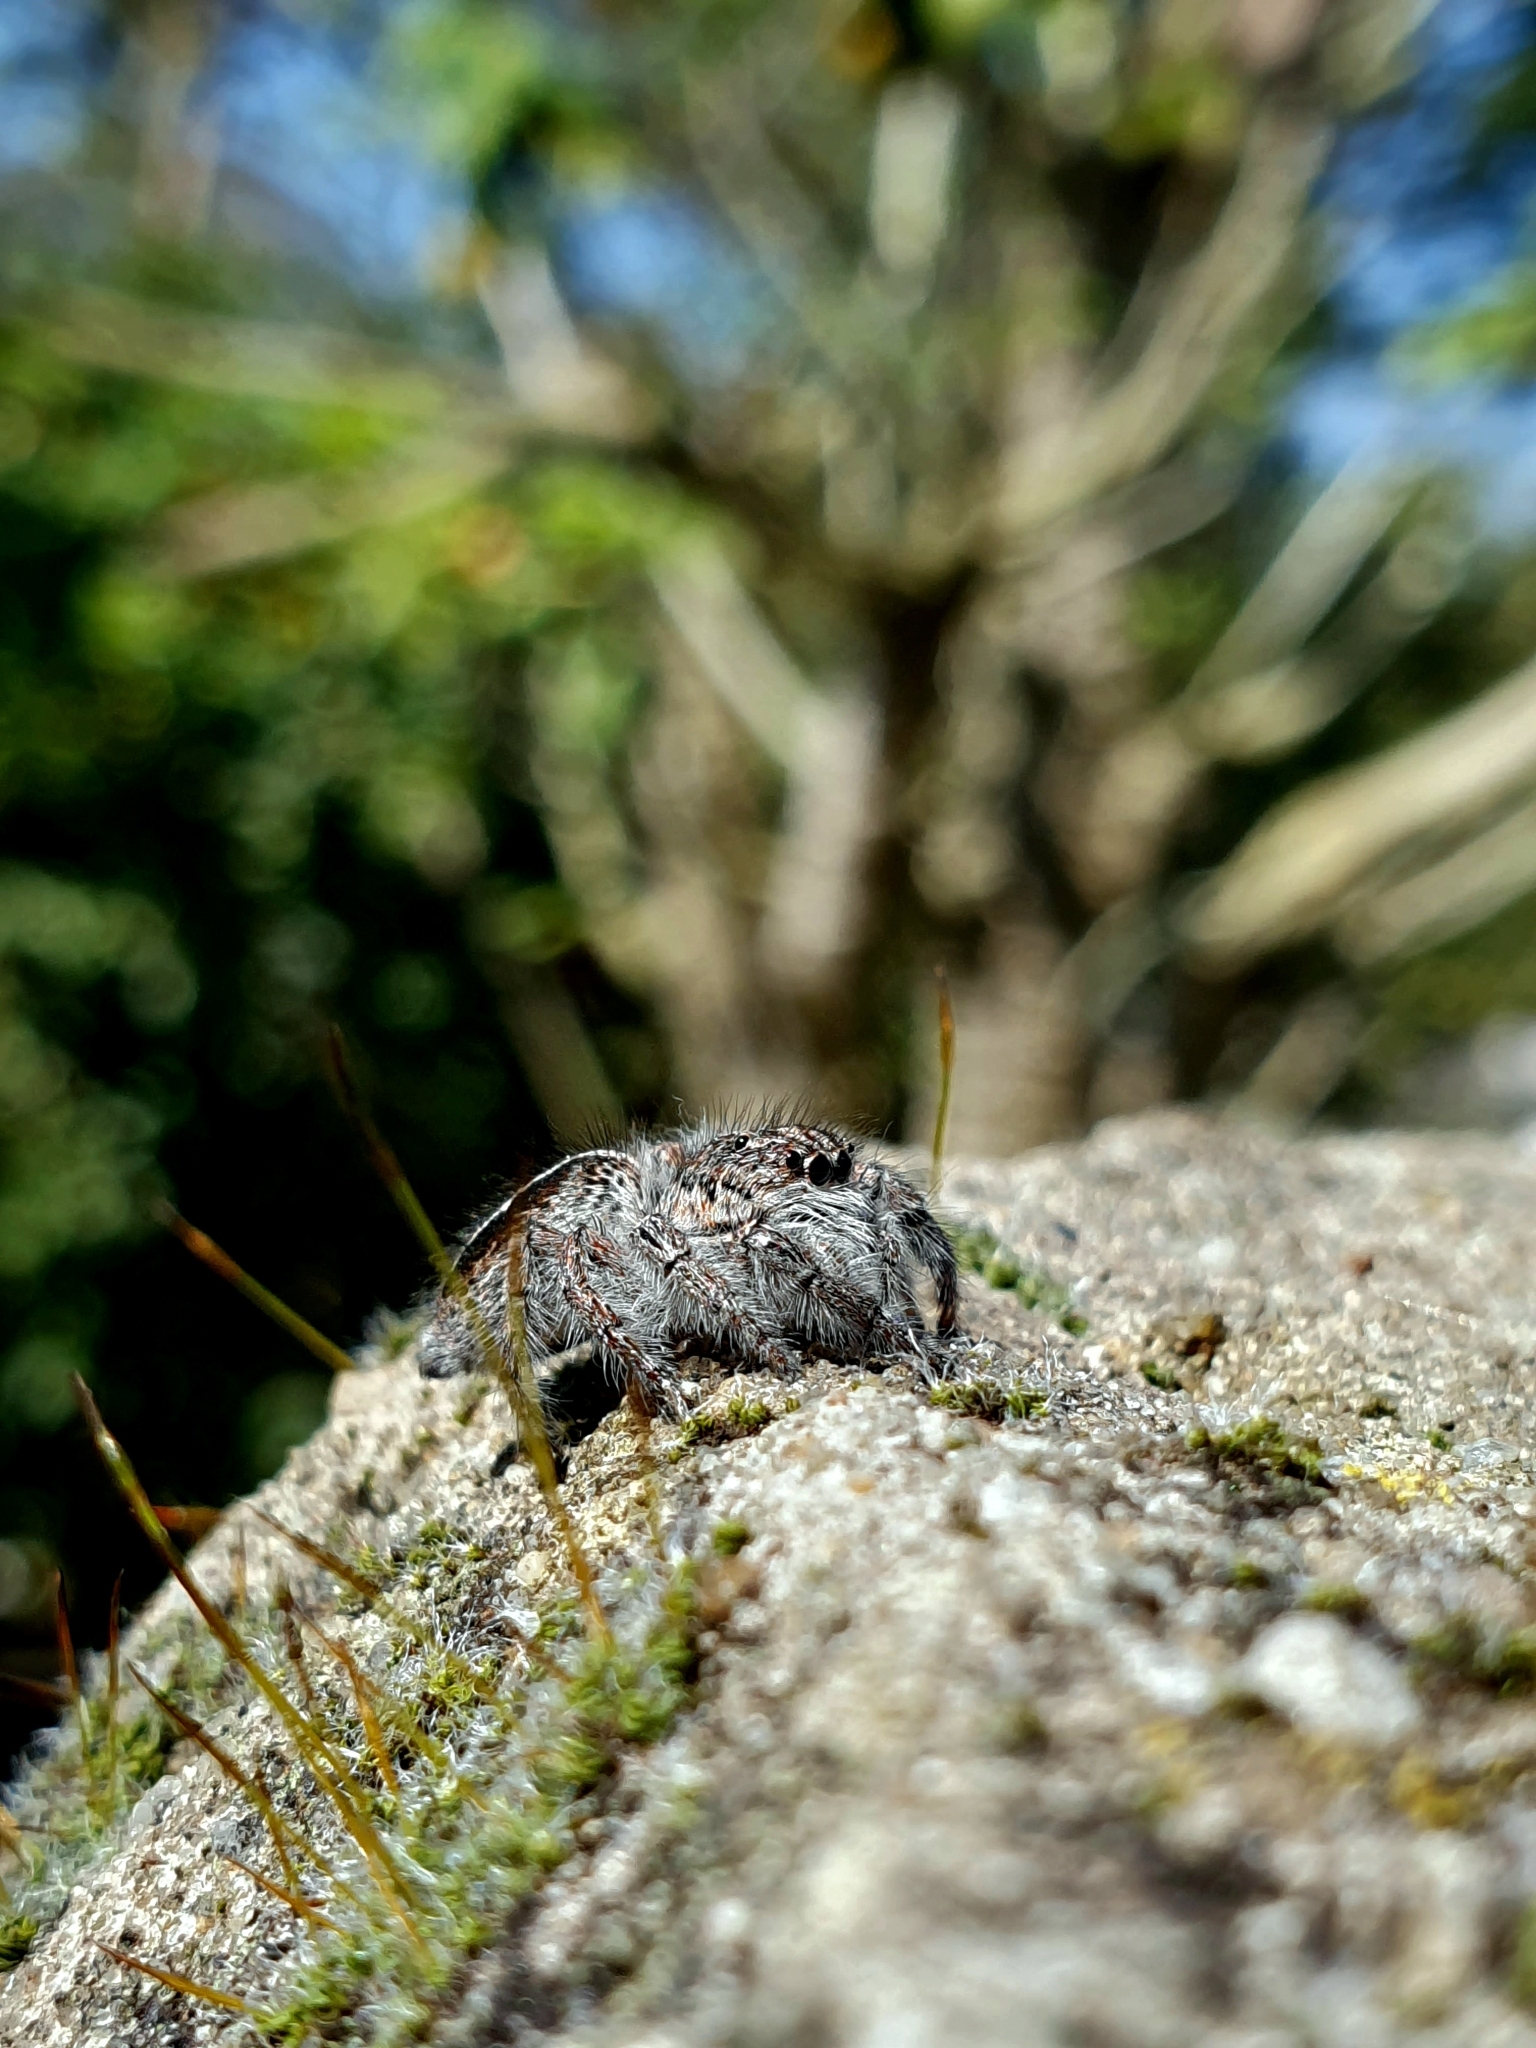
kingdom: Animalia
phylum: Arthropoda
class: Arachnida
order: Araneae
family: Salticidae
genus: Megafreya
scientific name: Megafreya sutrix
